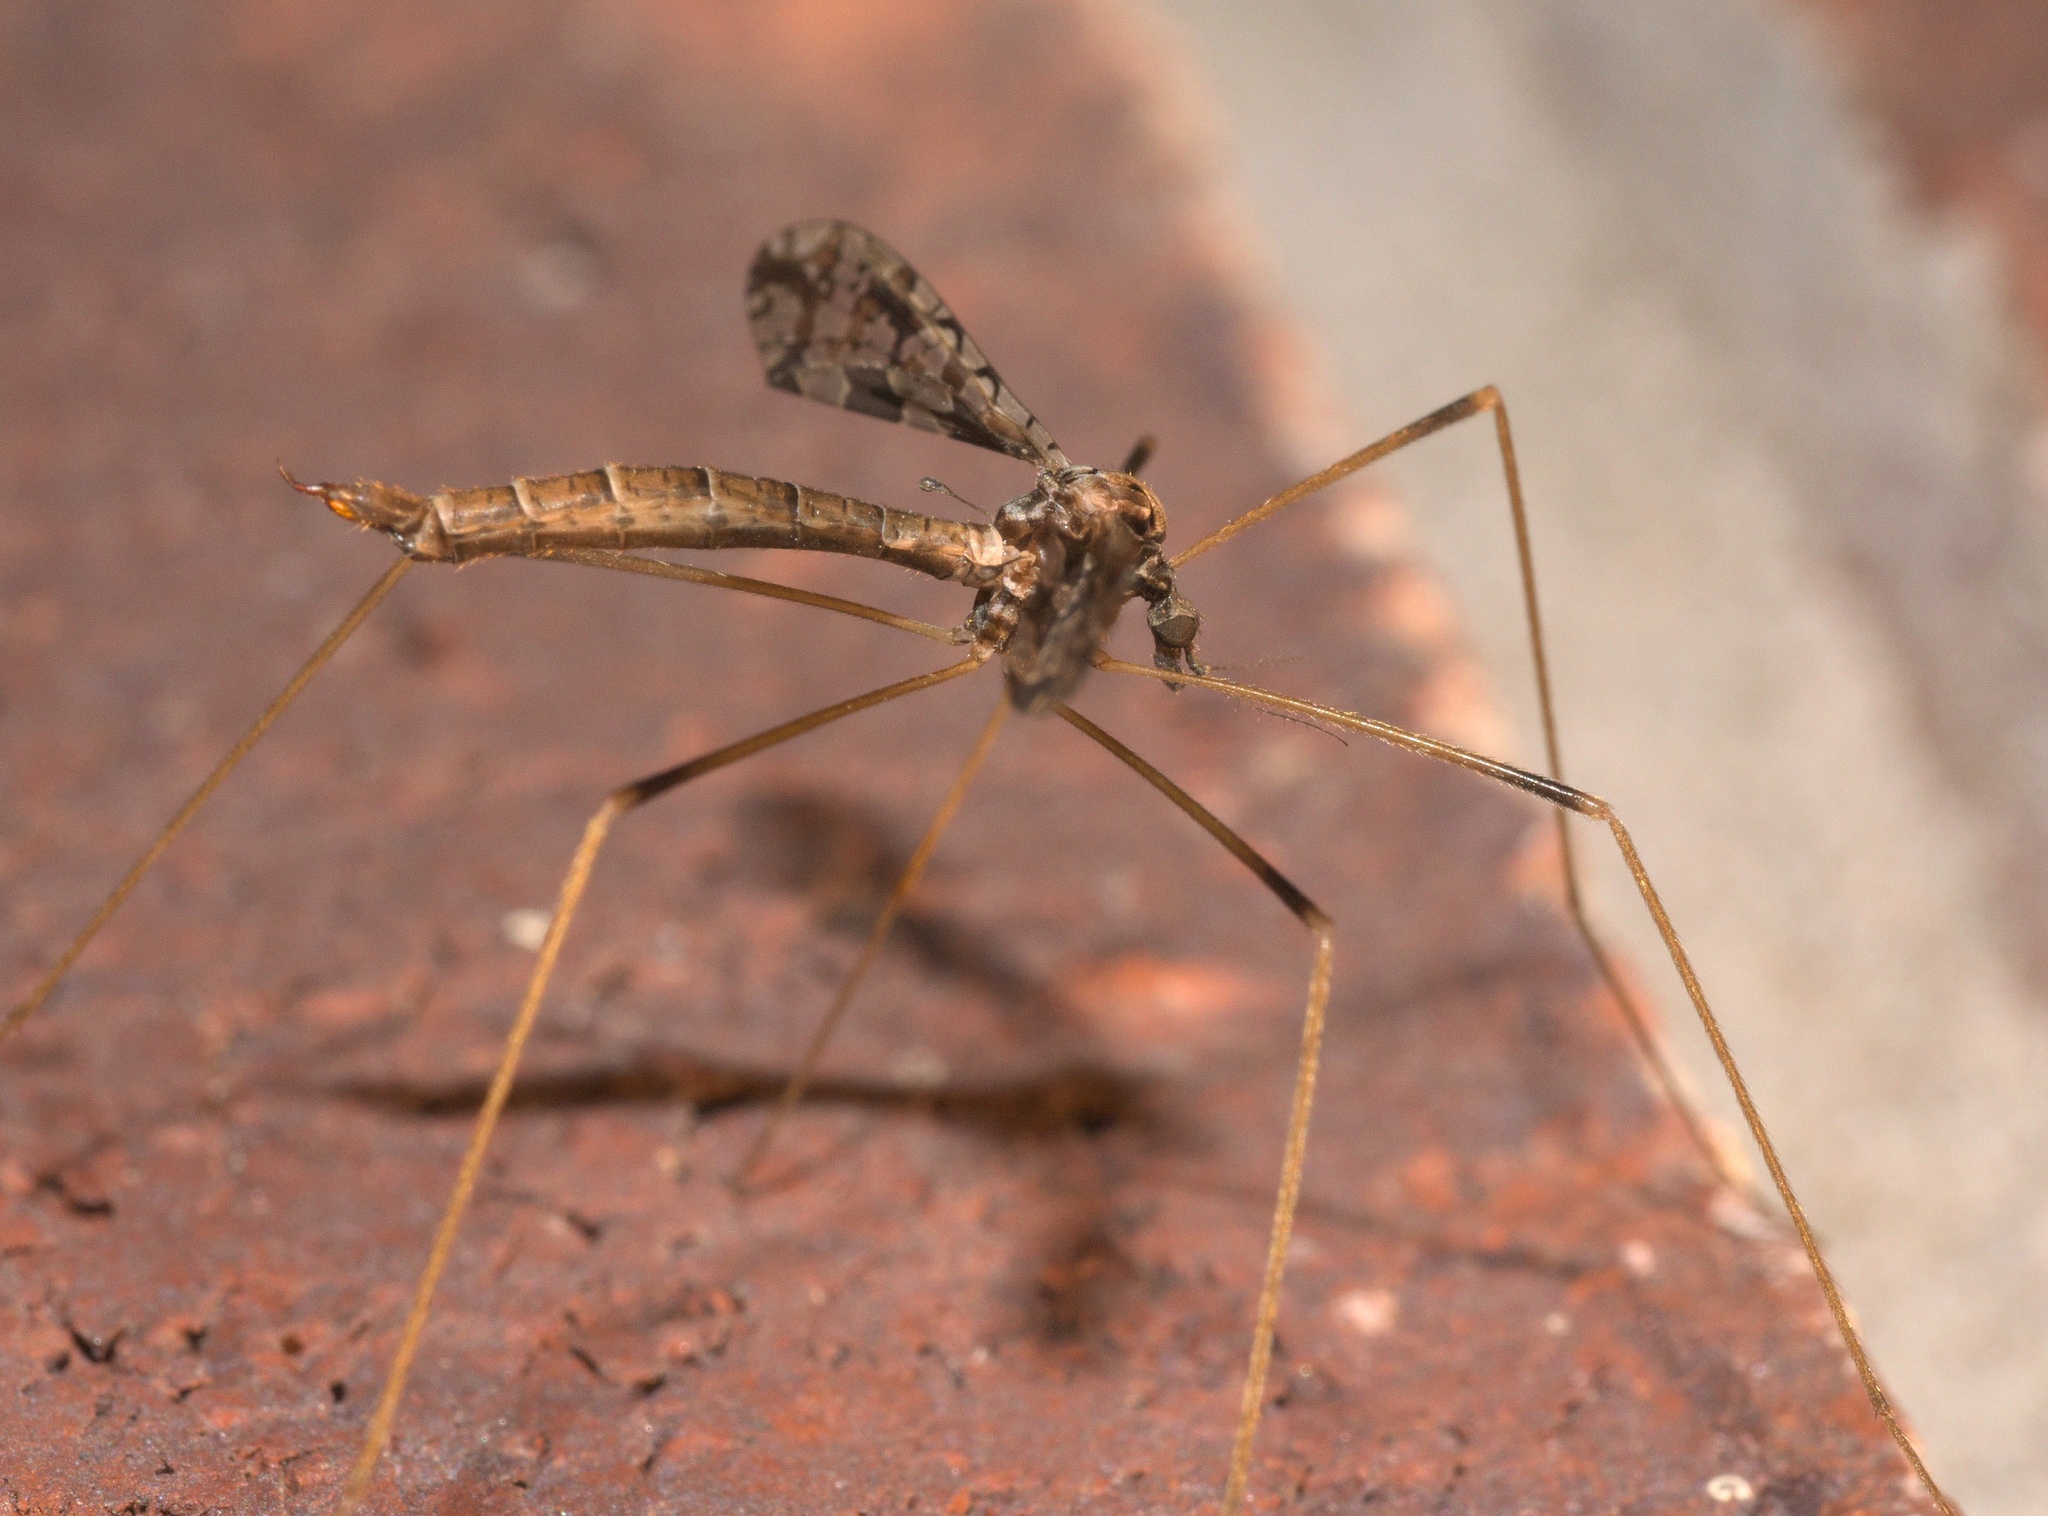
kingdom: Animalia
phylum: Arthropoda
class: Insecta
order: Diptera
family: Limoniidae
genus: Epiphragma
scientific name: Epiphragma solatrix
